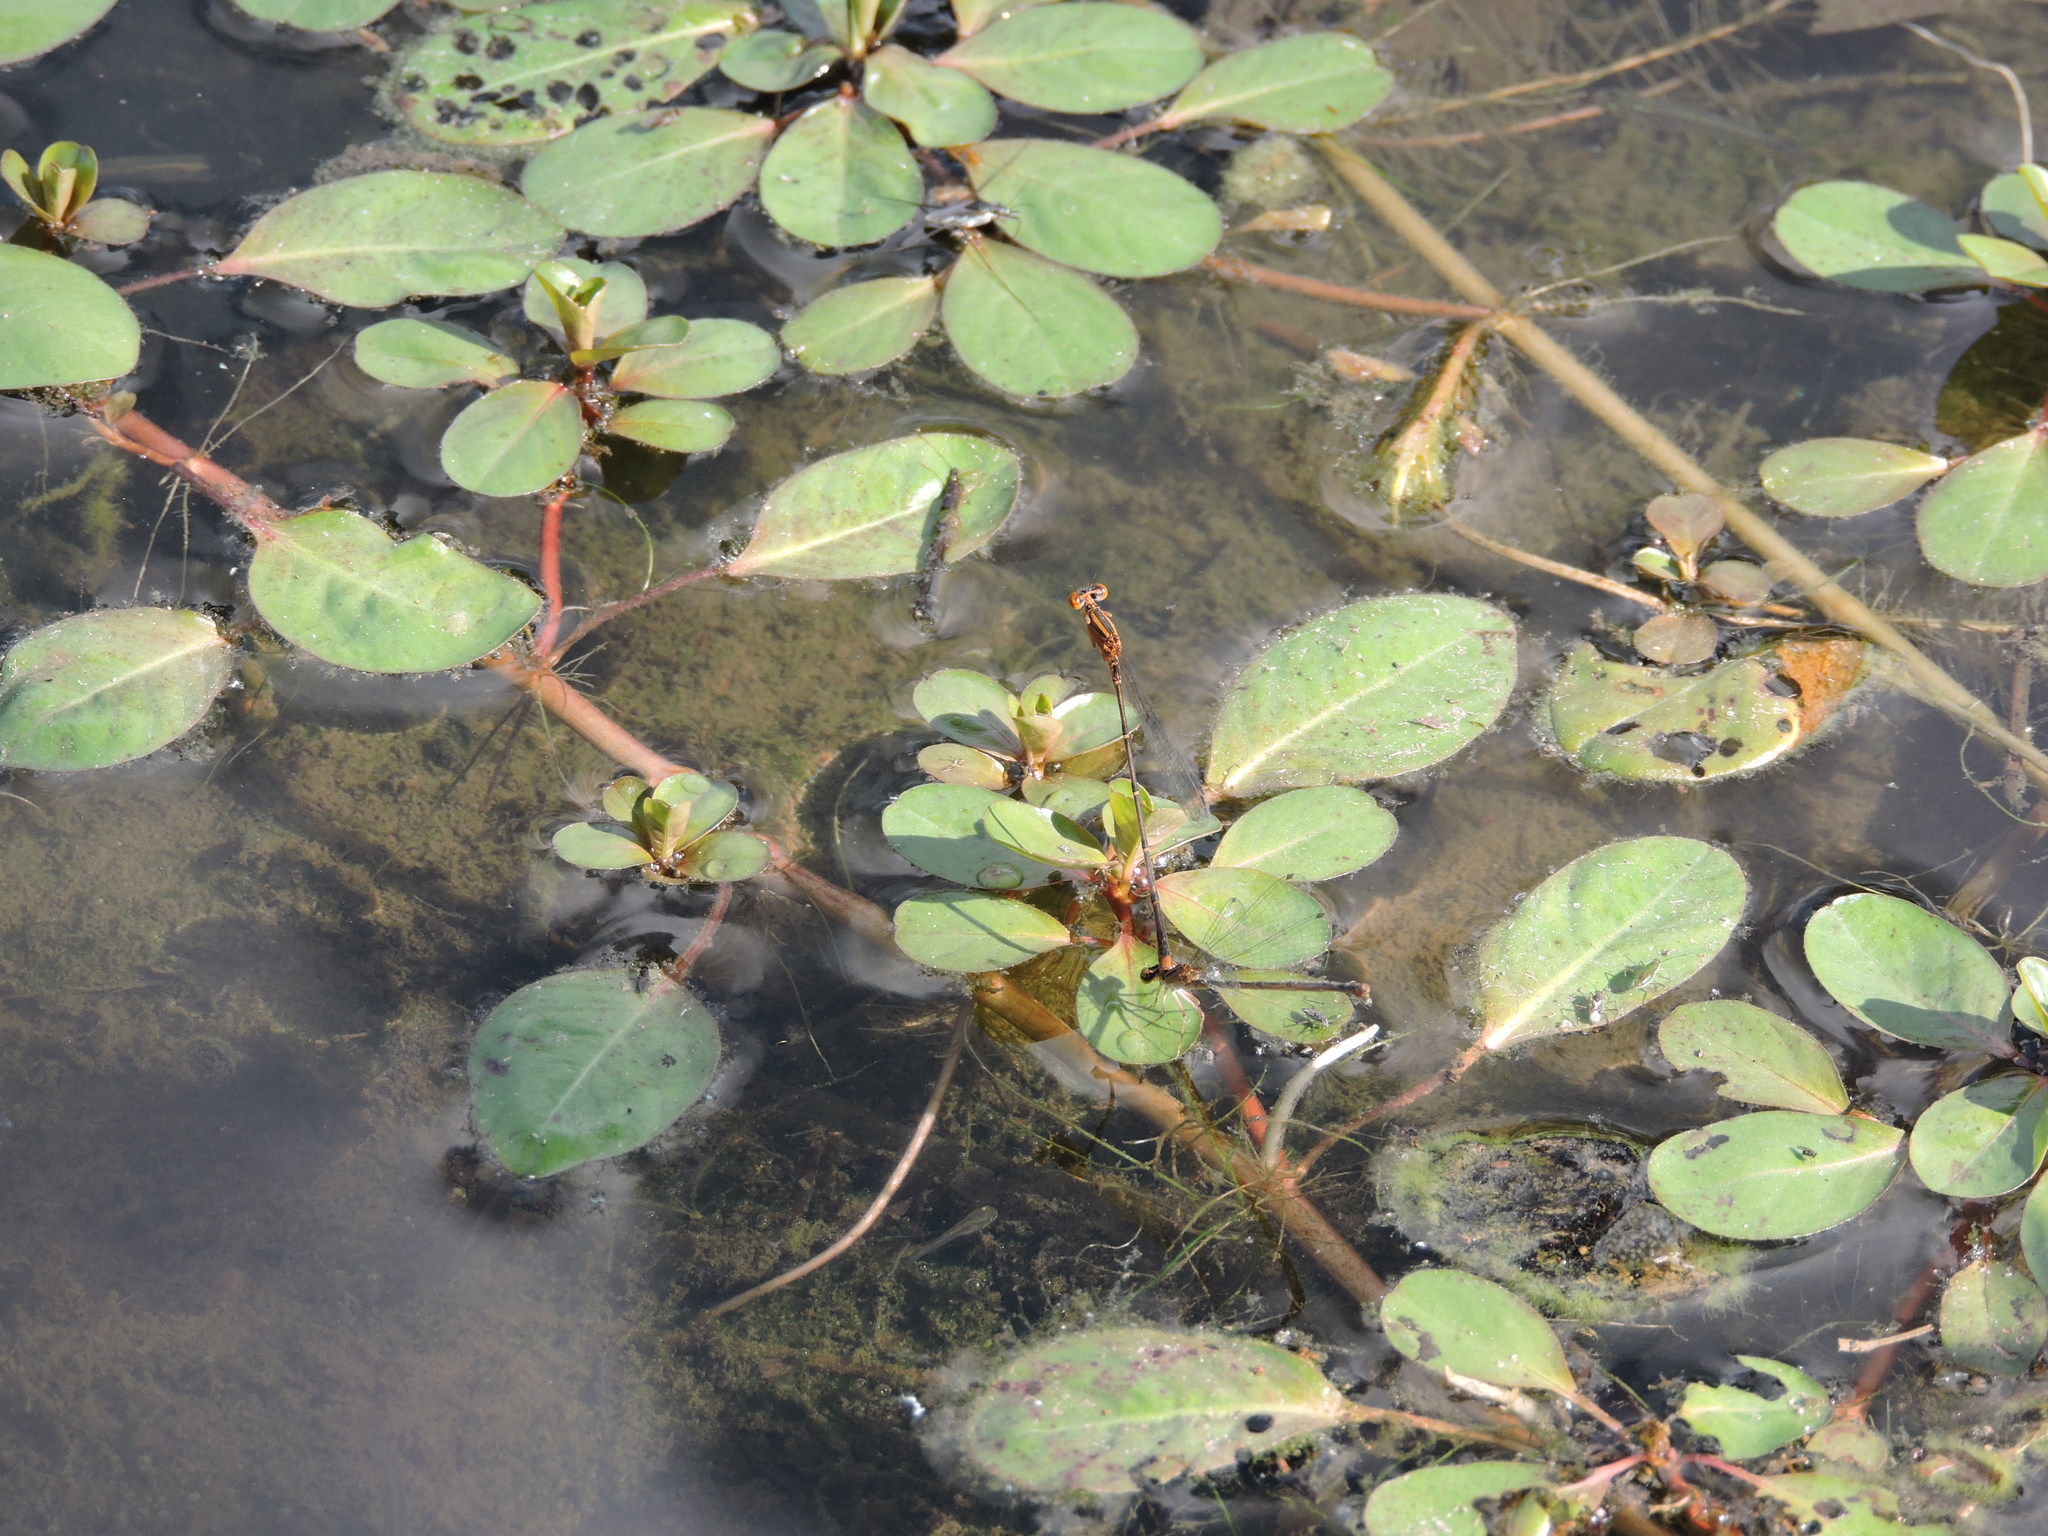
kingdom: Animalia
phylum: Arthropoda
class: Insecta
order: Odonata
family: Coenagrionidae
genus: Enallagma
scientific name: Enallagma signatum
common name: Orange bluet
